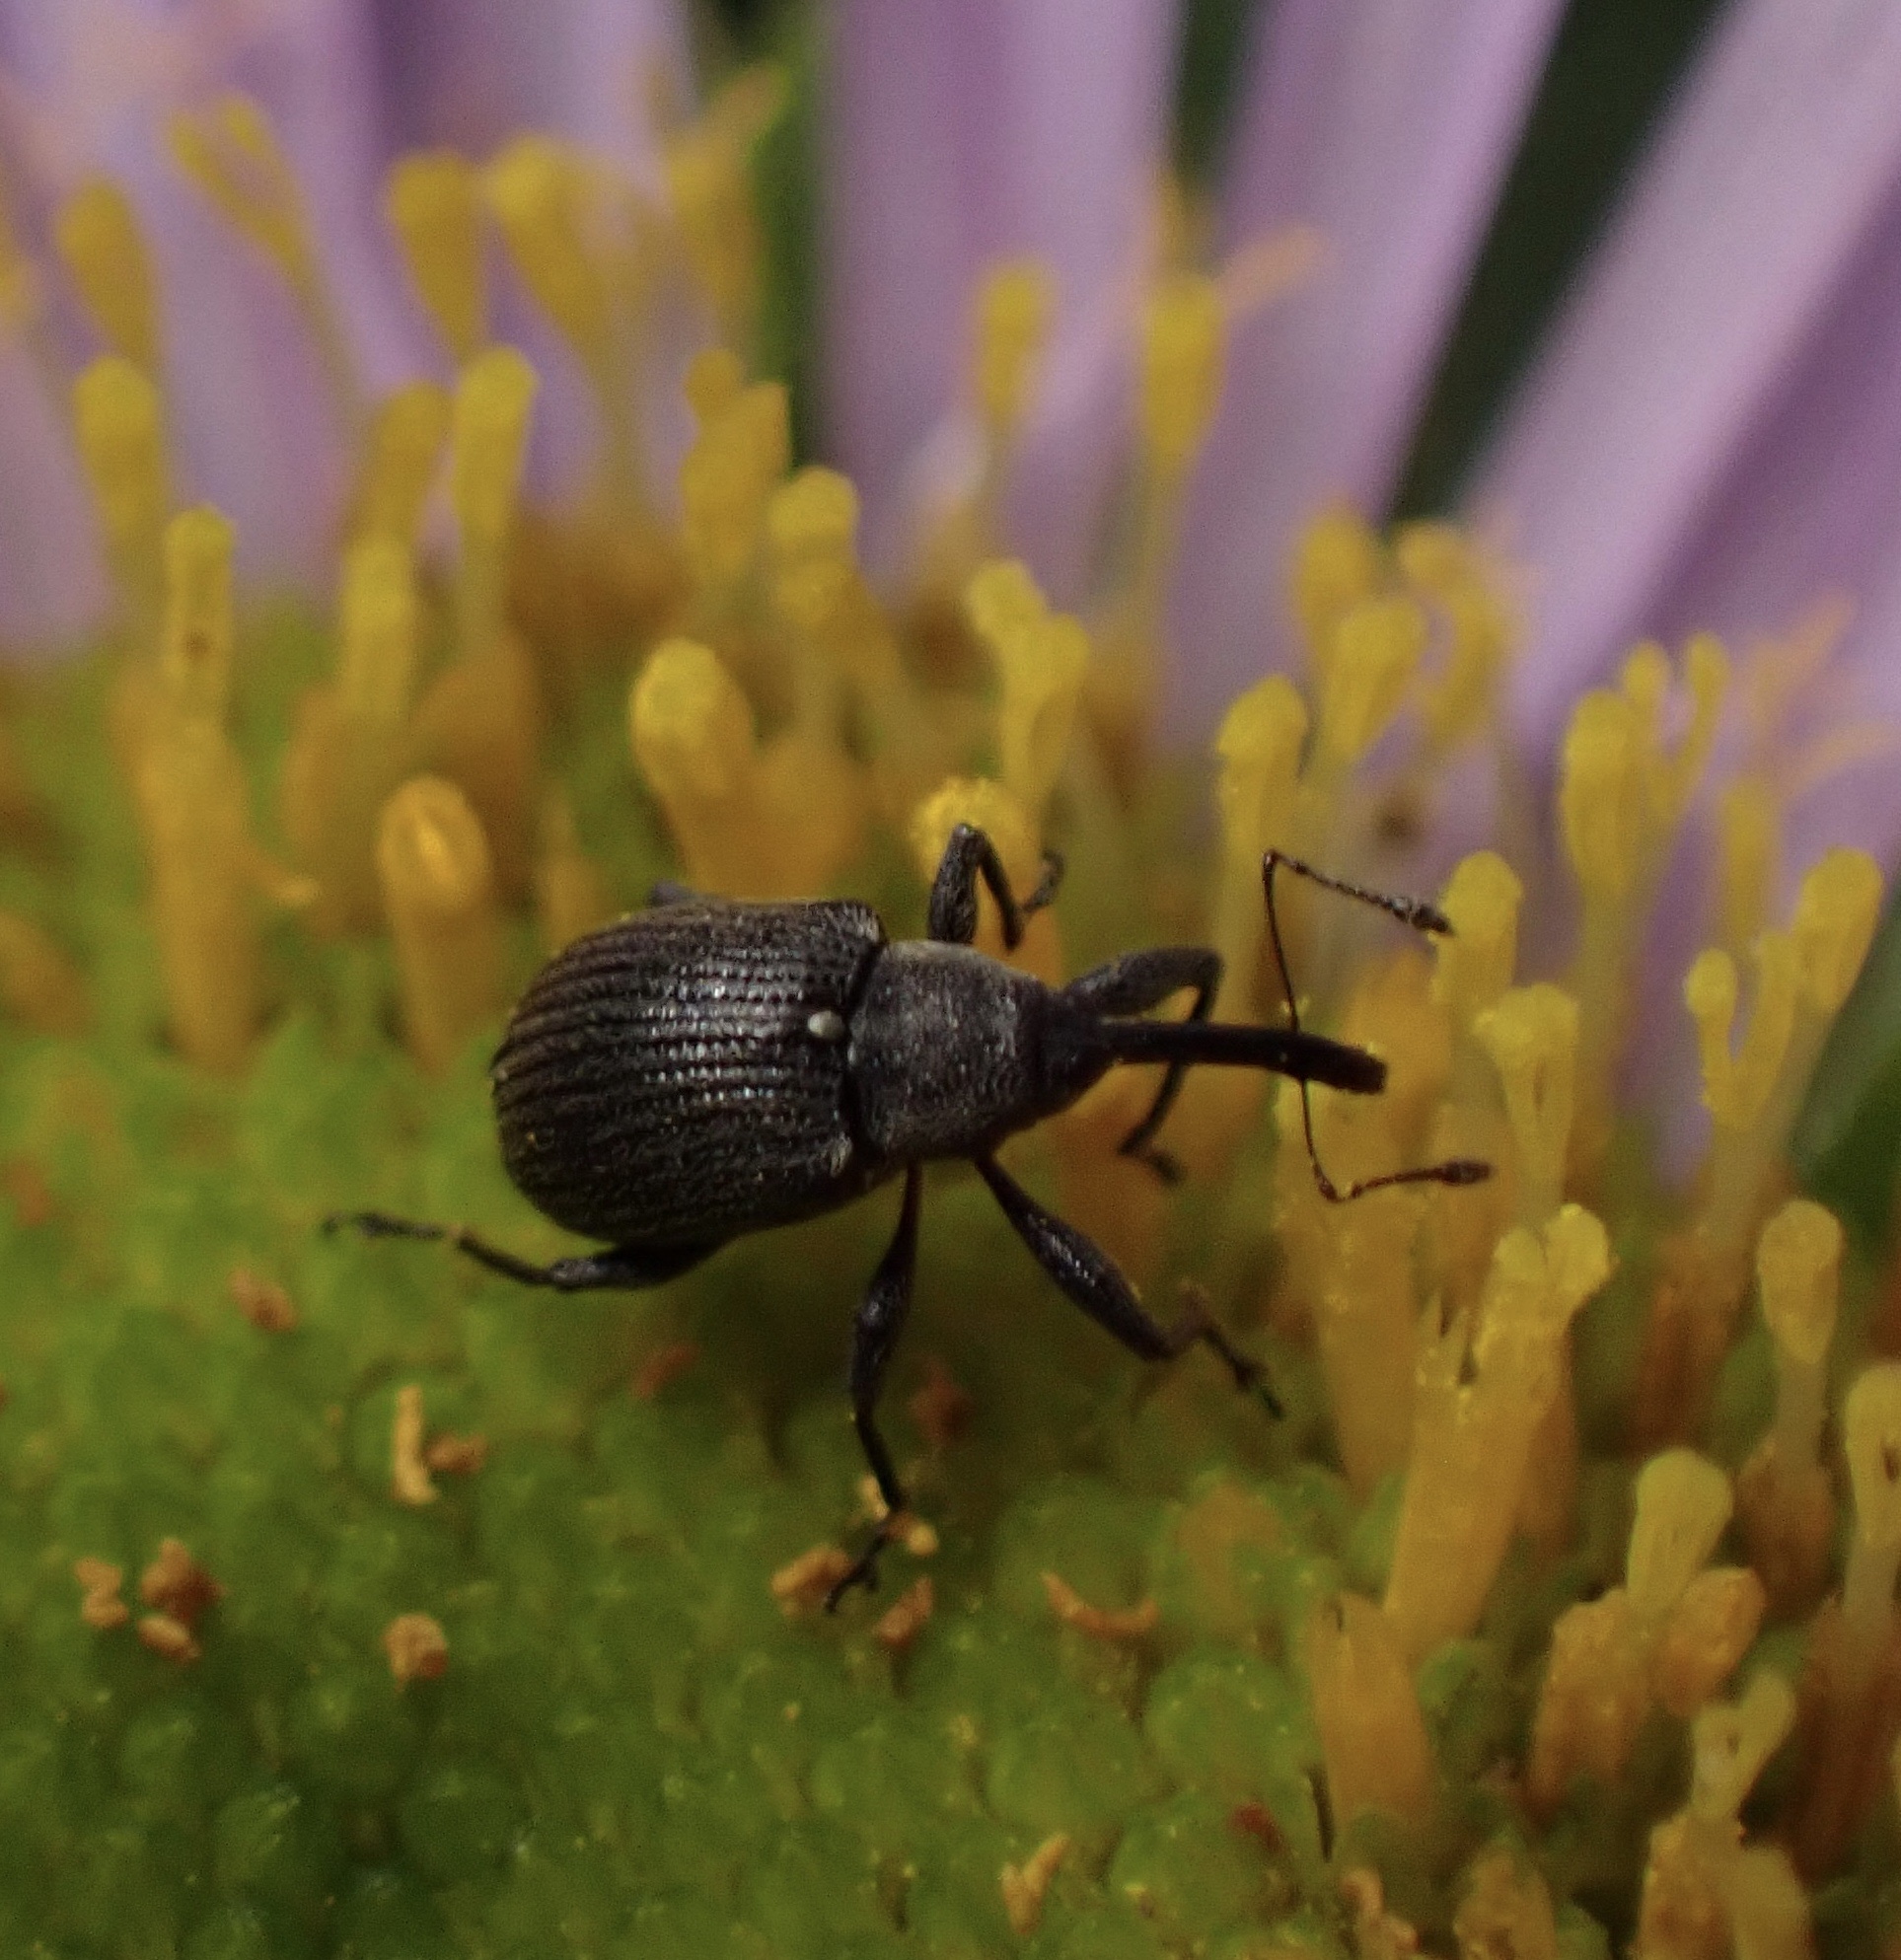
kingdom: Animalia
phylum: Arthropoda
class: Insecta
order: Coleoptera
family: Curculionidae
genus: Anthonomus
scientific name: Anthonomus rubi
